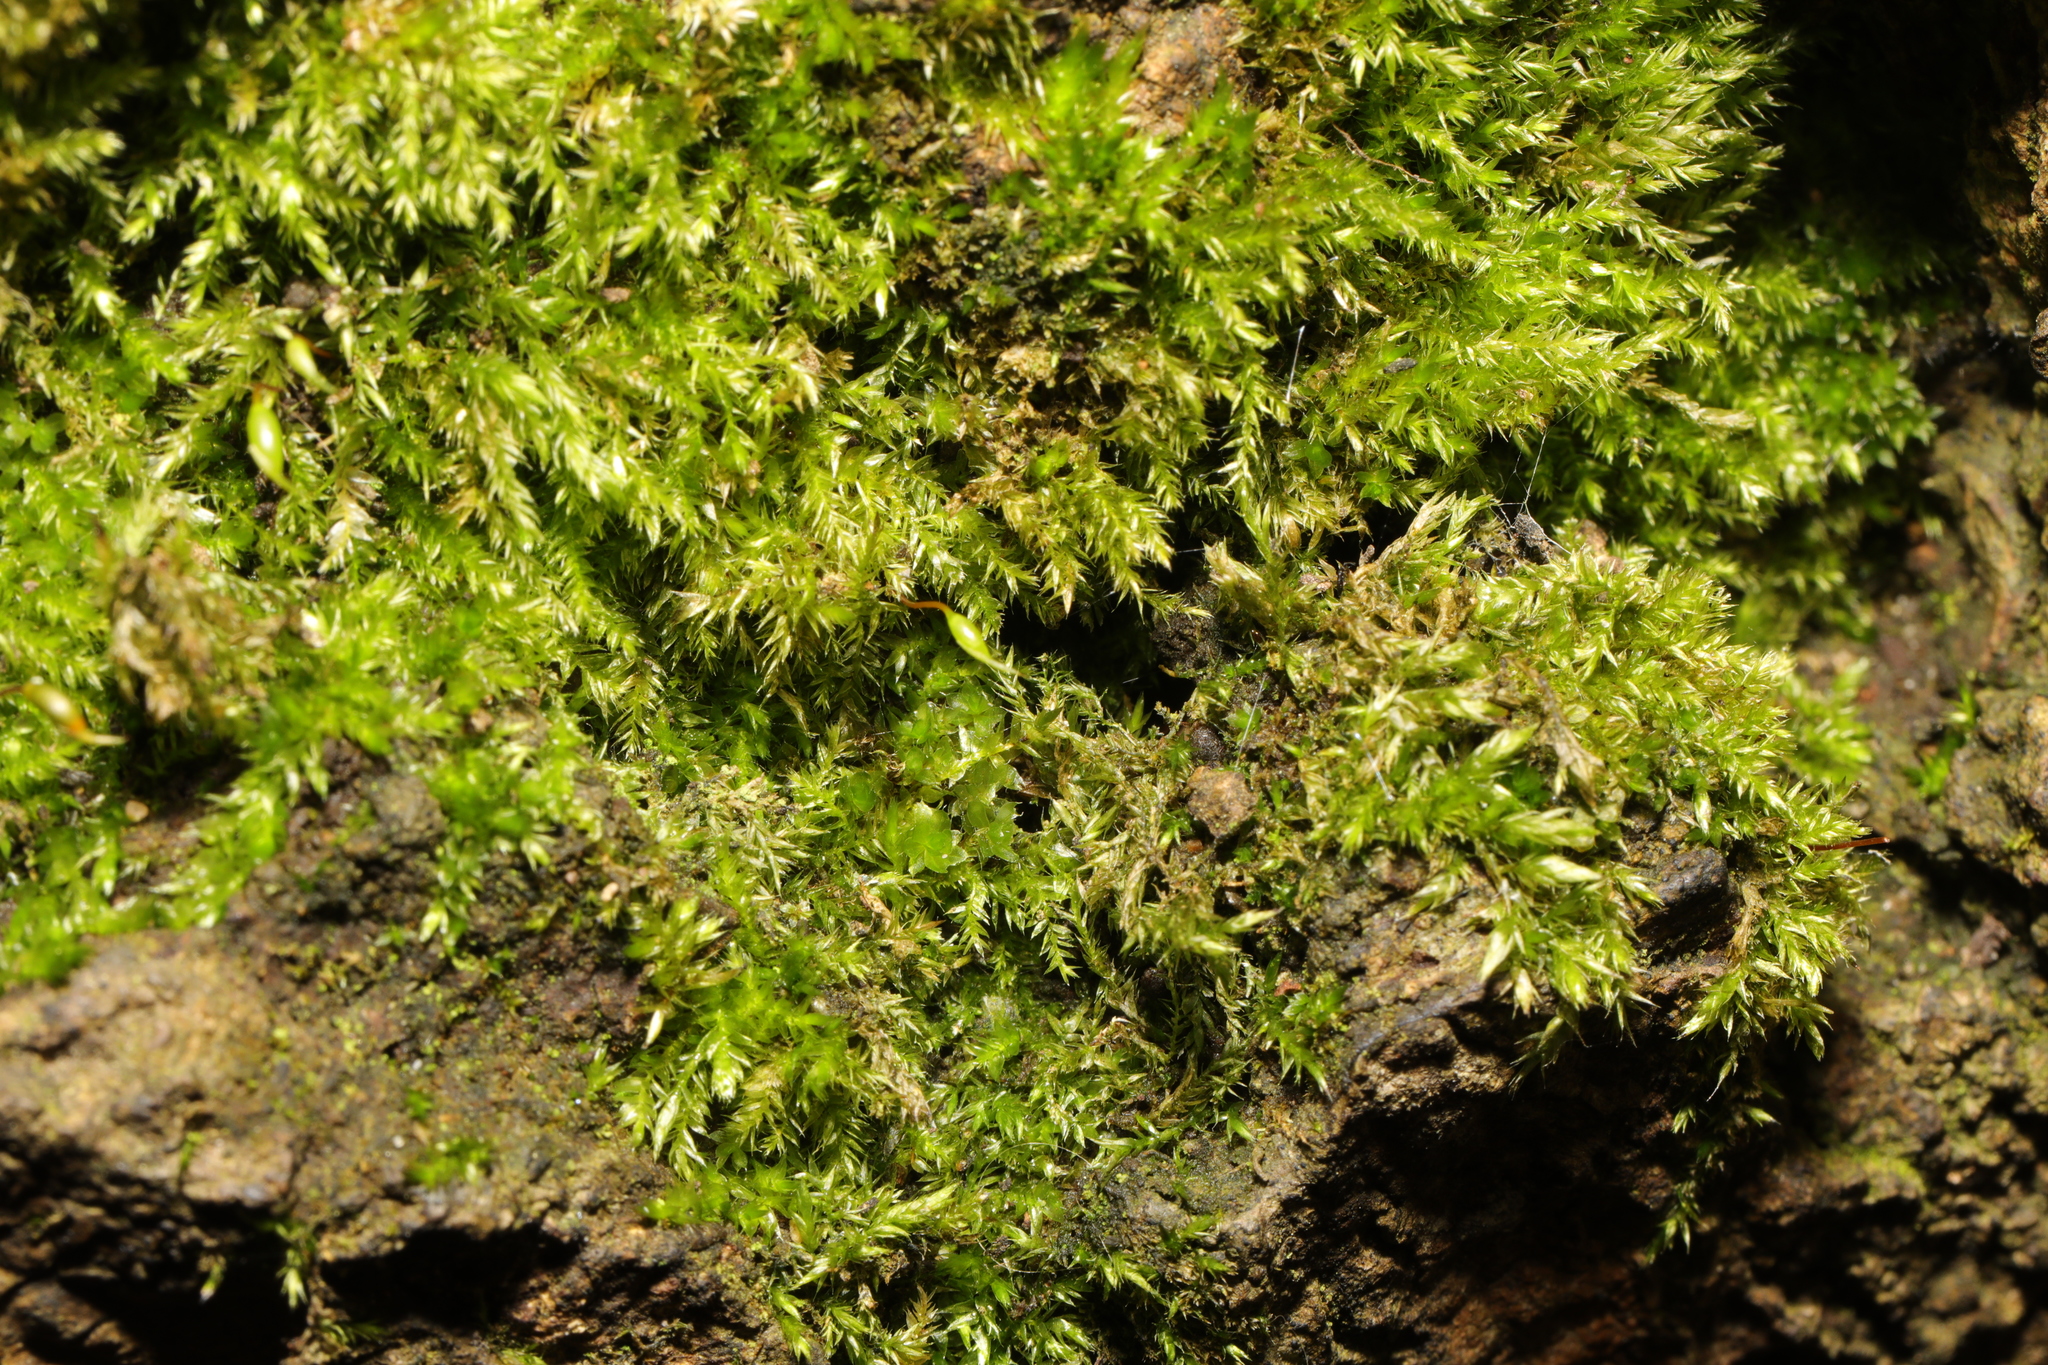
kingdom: Plantae
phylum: Bryophyta
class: Bryopsida
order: Bryales
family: Bryaceae
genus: Rosulabryum
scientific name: Rosulabryum capillare
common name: Capillary thread-moss
